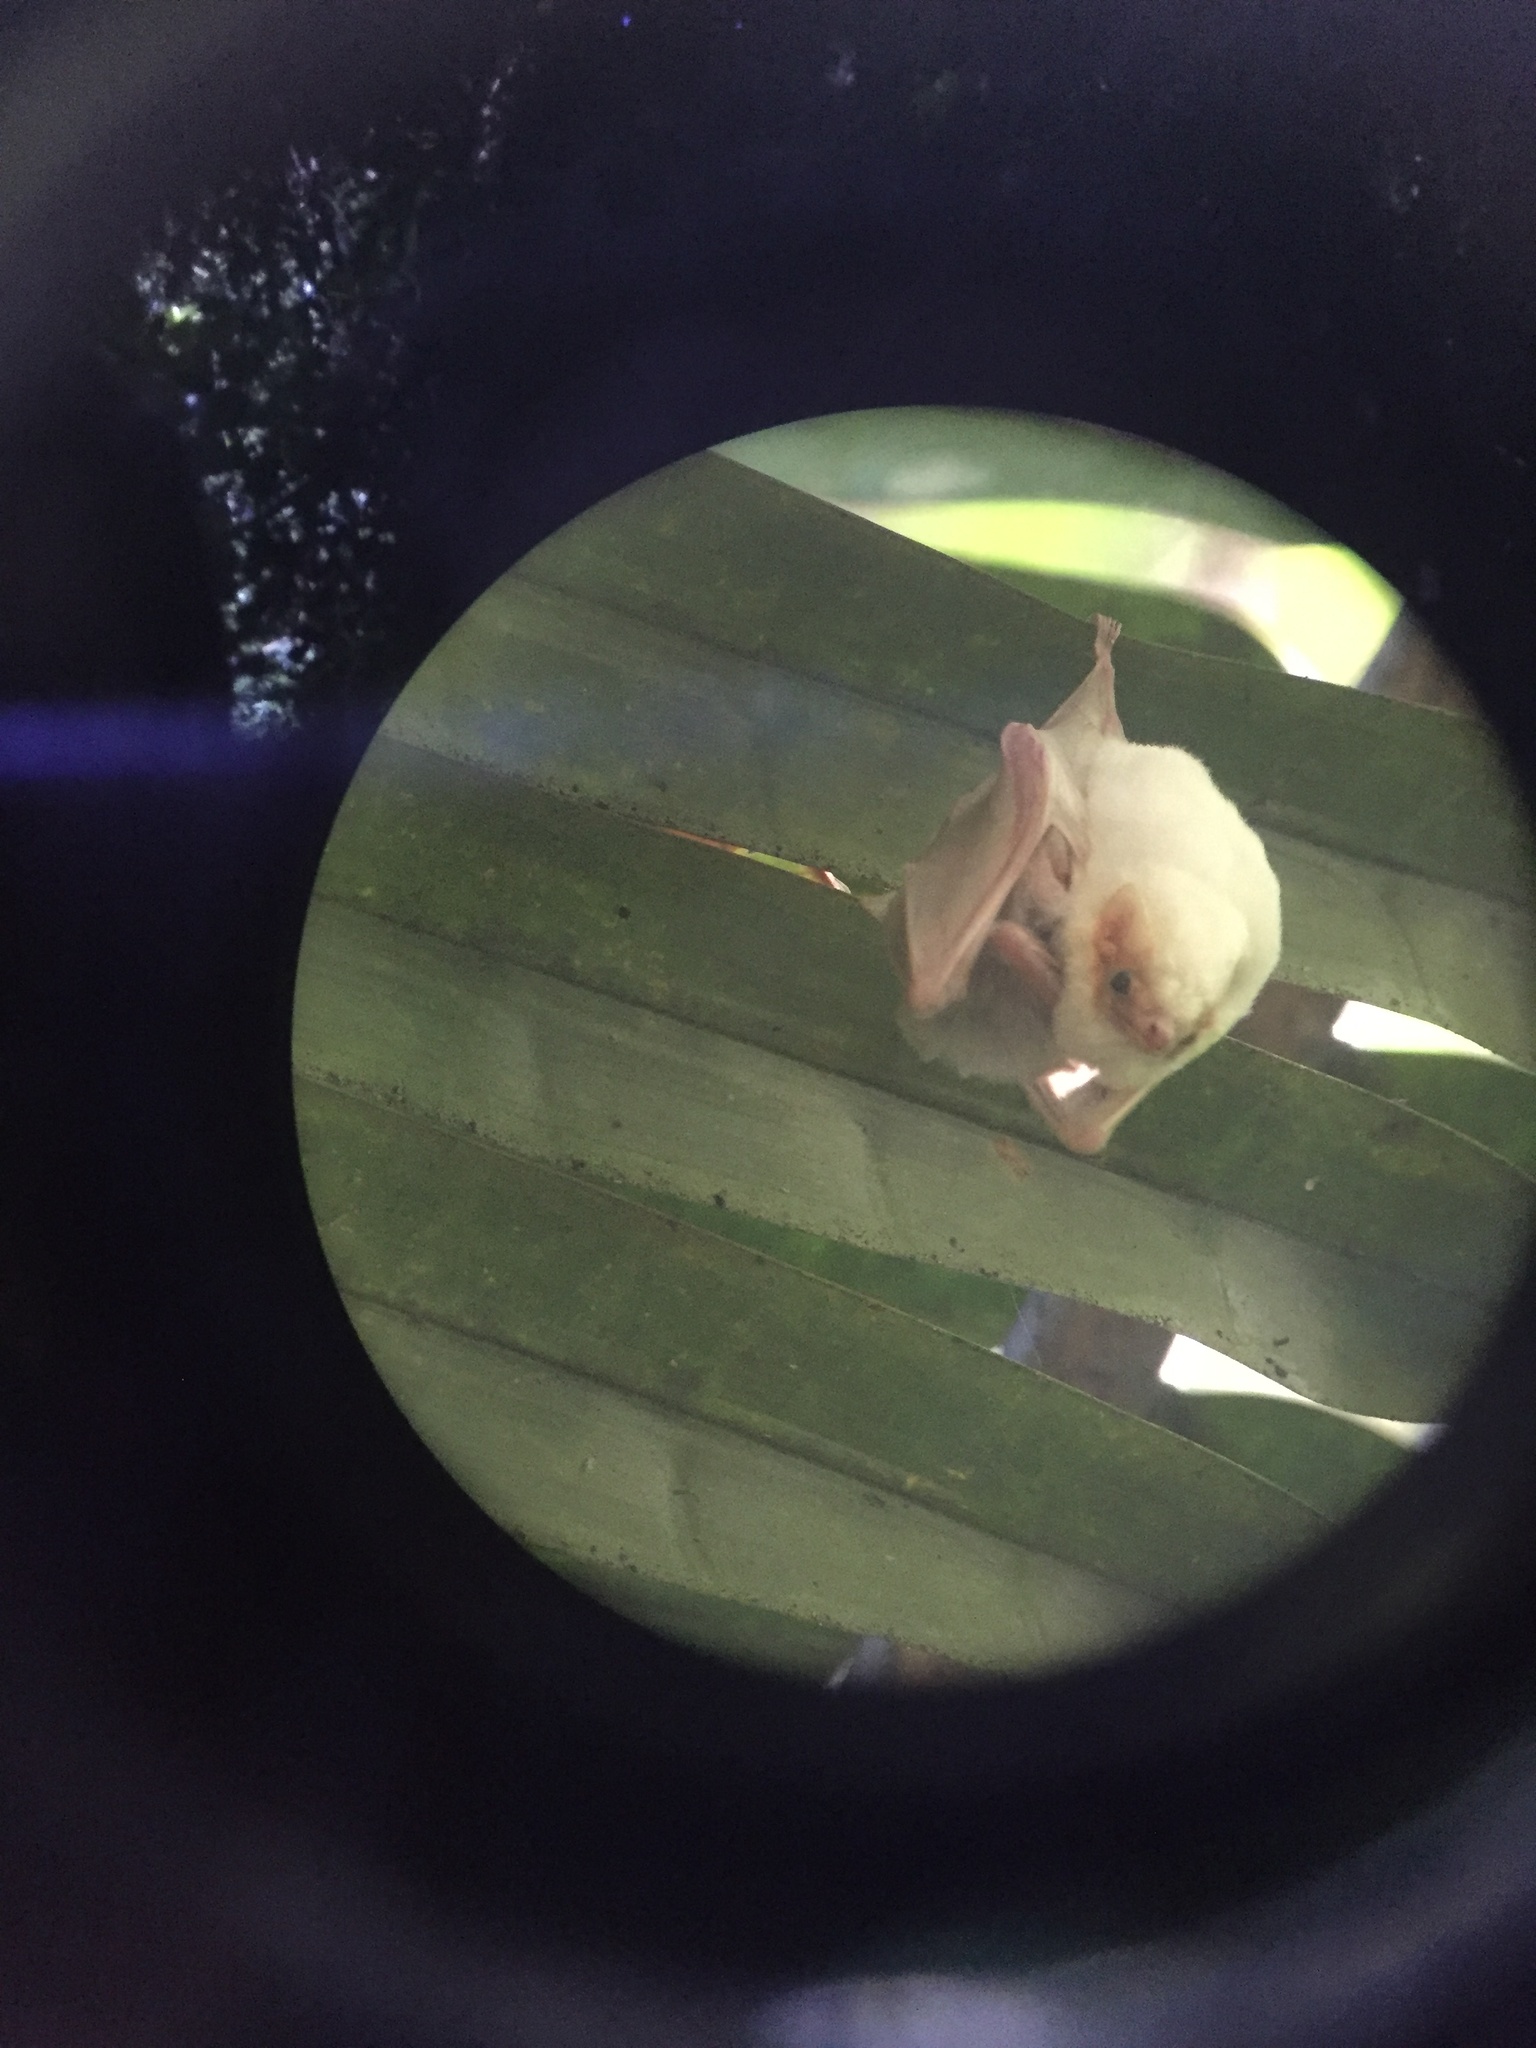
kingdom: Animalia
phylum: Chordata
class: Mammalia
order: Chiroptera
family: Emballonuridae
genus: Diclidurus
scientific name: Diclidurus albus
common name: Northern ghost bat
